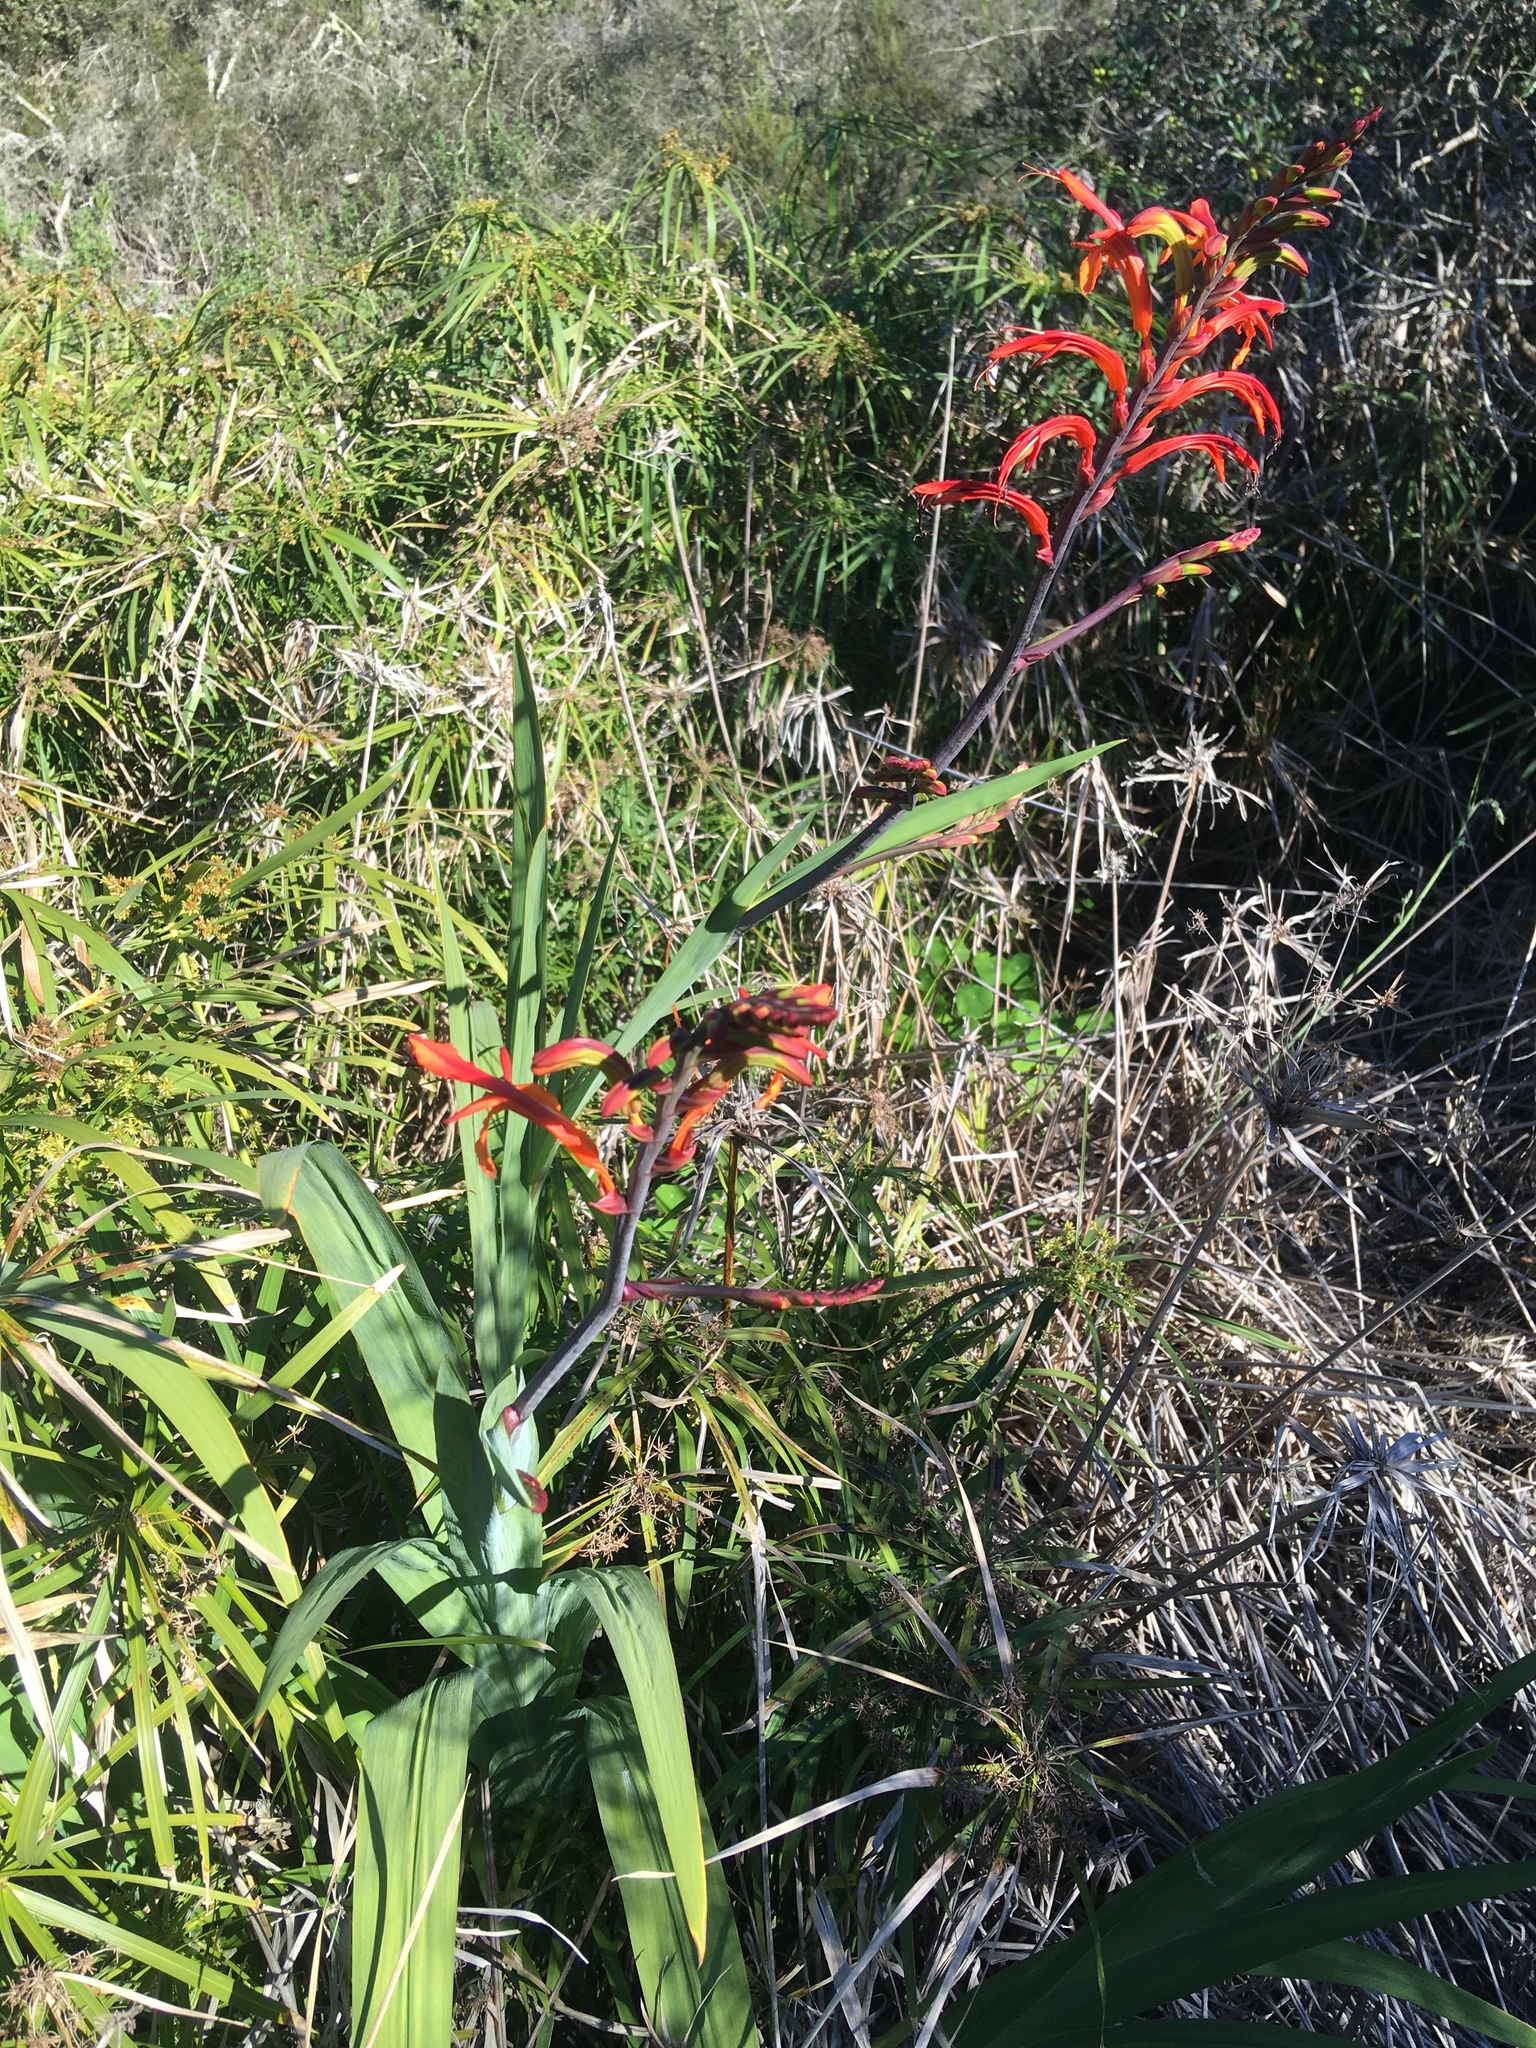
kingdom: Plantae
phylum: Tracheophyta
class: Liliopsida
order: Asparagales
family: Iridaceae
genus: Chasmanthe
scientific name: Chasmanthe floribunda
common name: African cornflag
